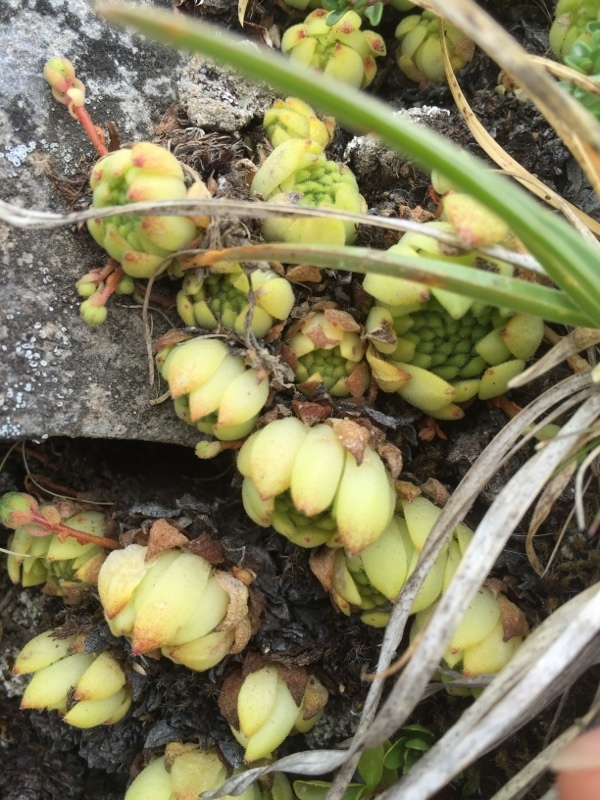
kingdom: Plantae
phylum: Tracheophyta
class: Magnoliopsida
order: Saxifragales
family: Crassulaceae
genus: Sempervivum
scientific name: Sempervivum montanum
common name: Mountain house-leek
